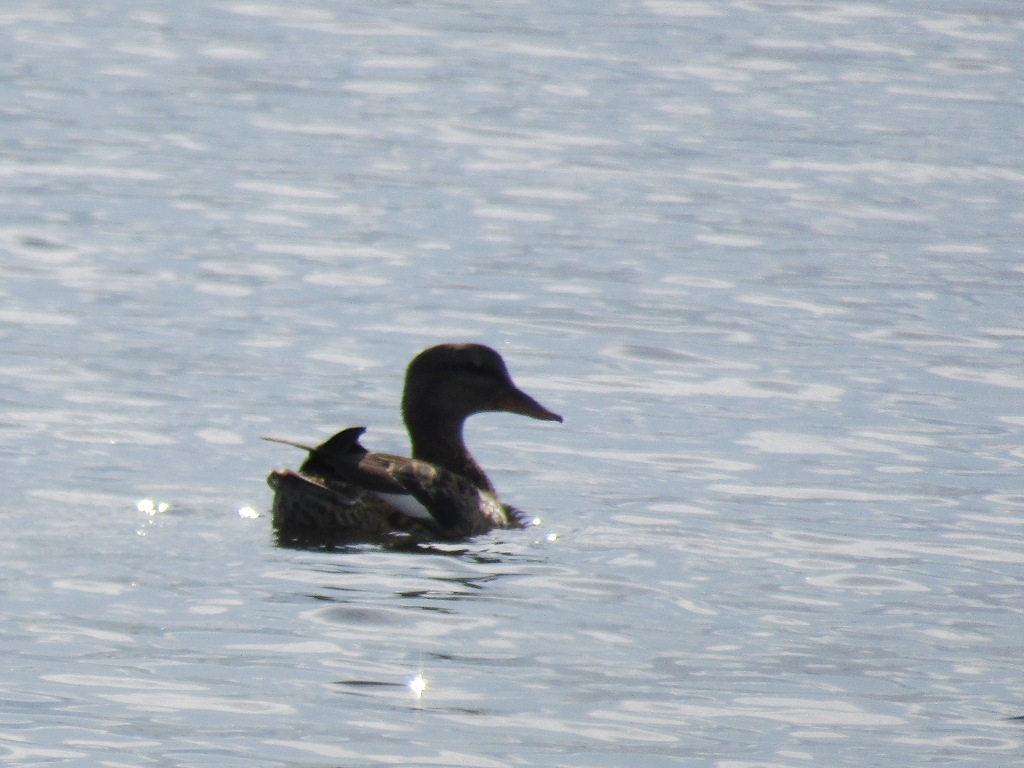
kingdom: Animalia
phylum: Chordata
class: Aves
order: Anseriformes
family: Anatidae
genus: Mareca
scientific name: Mareca strepera
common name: Gadwall
